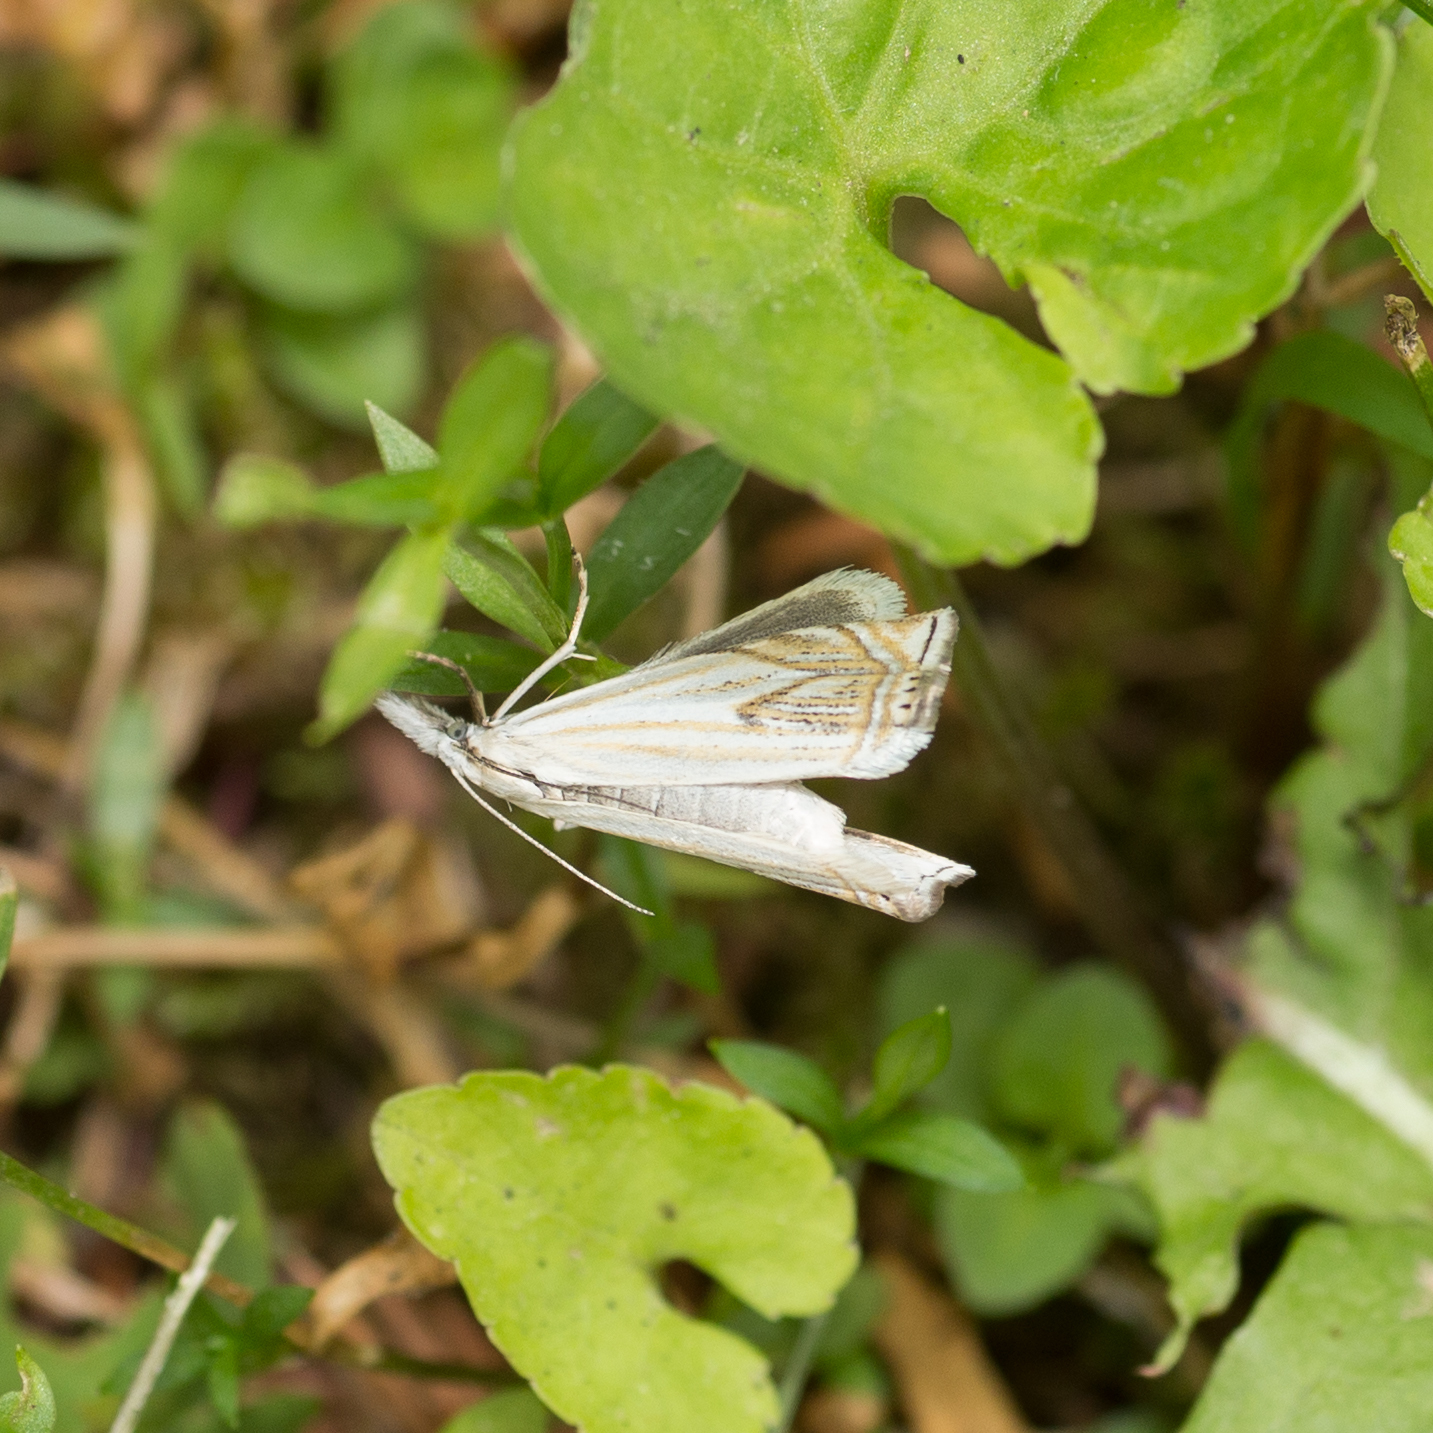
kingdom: Animalia
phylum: Arthropoda
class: Insecta
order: Lepidoptera
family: Crambidae
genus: Crambus
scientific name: Crambus nemorella
